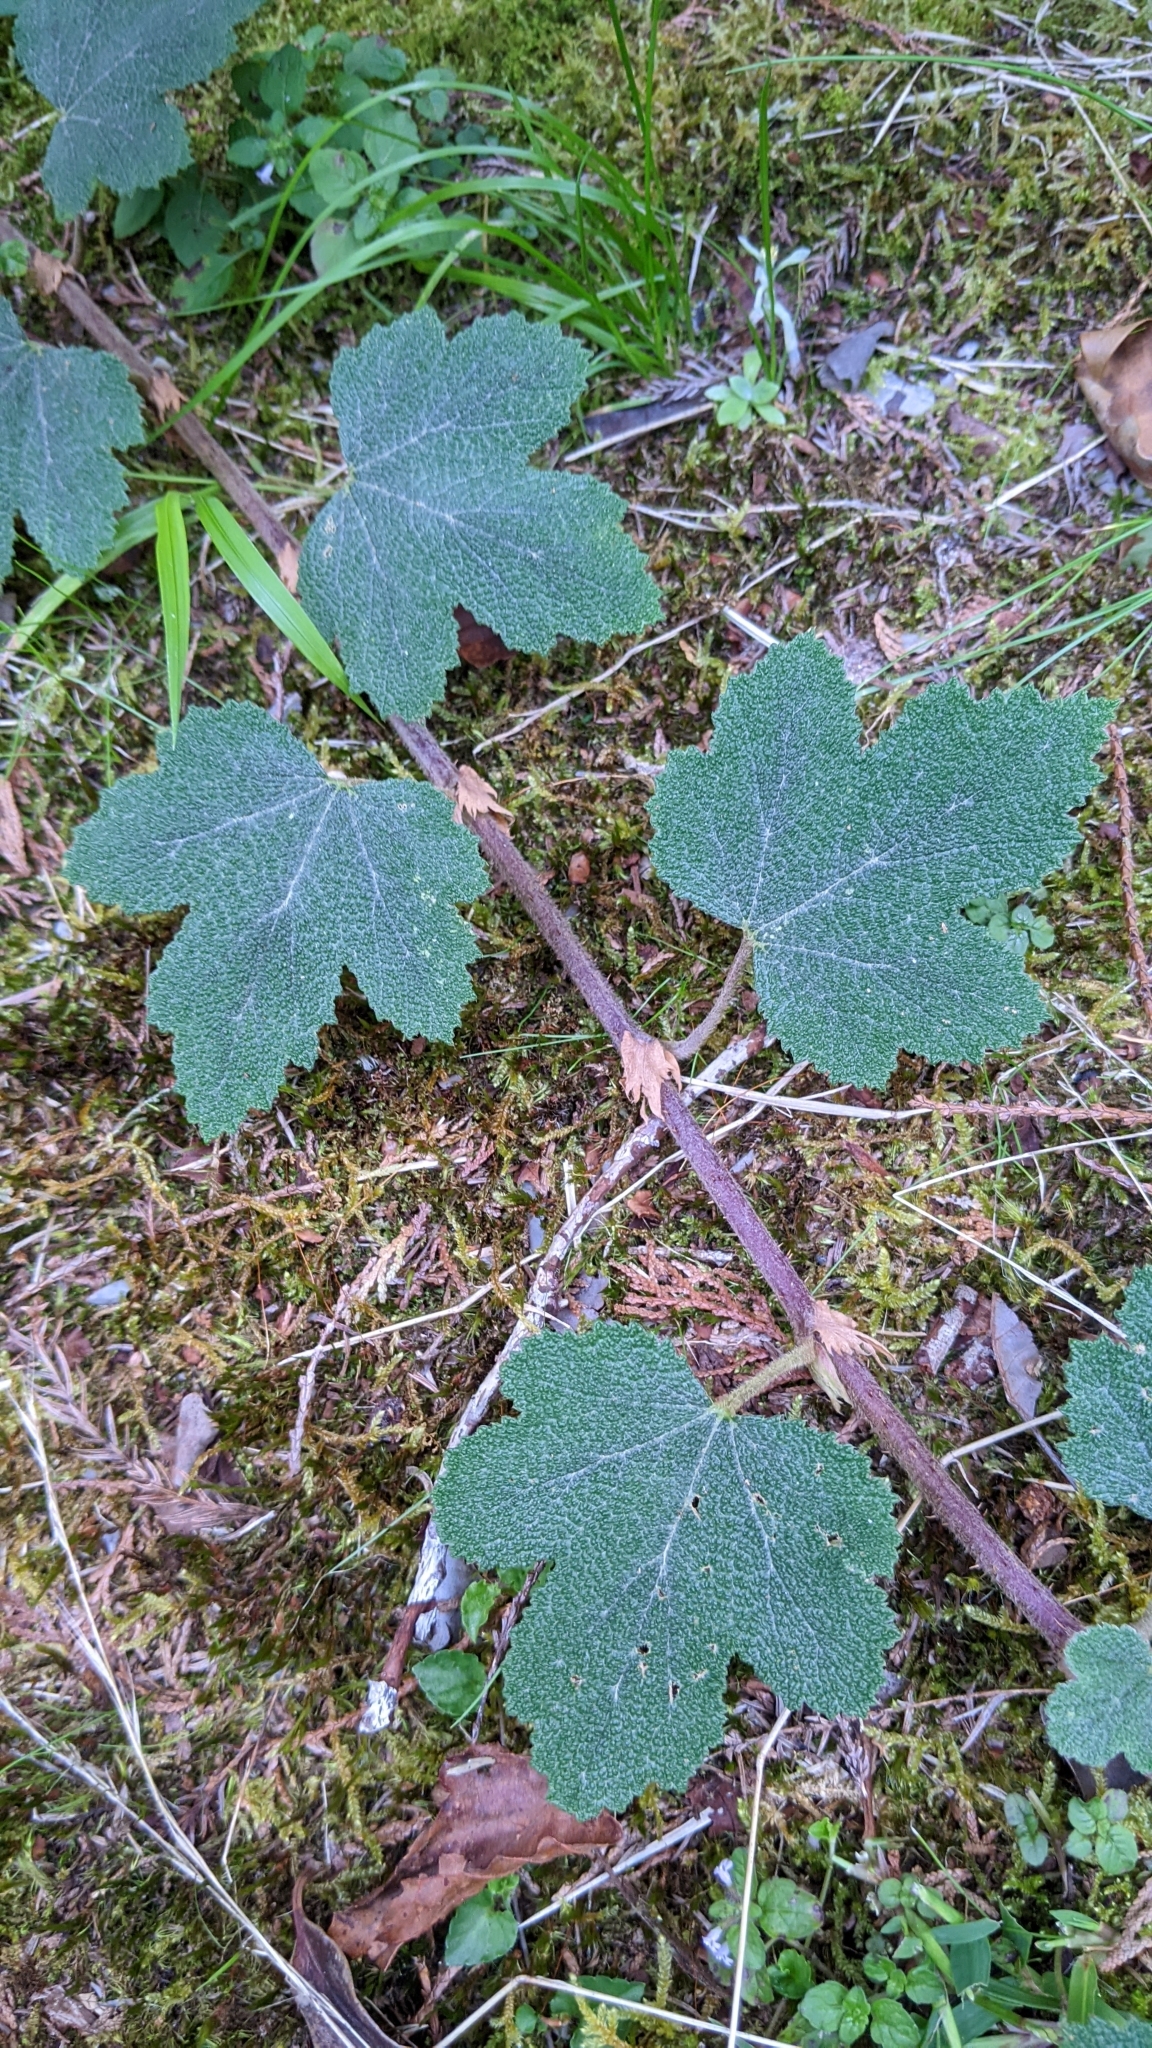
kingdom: Plantae
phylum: Tracheophyta
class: Magnoliopsida
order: Rosales
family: Rosaceae
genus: Rubus
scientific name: Rubus formosensis
